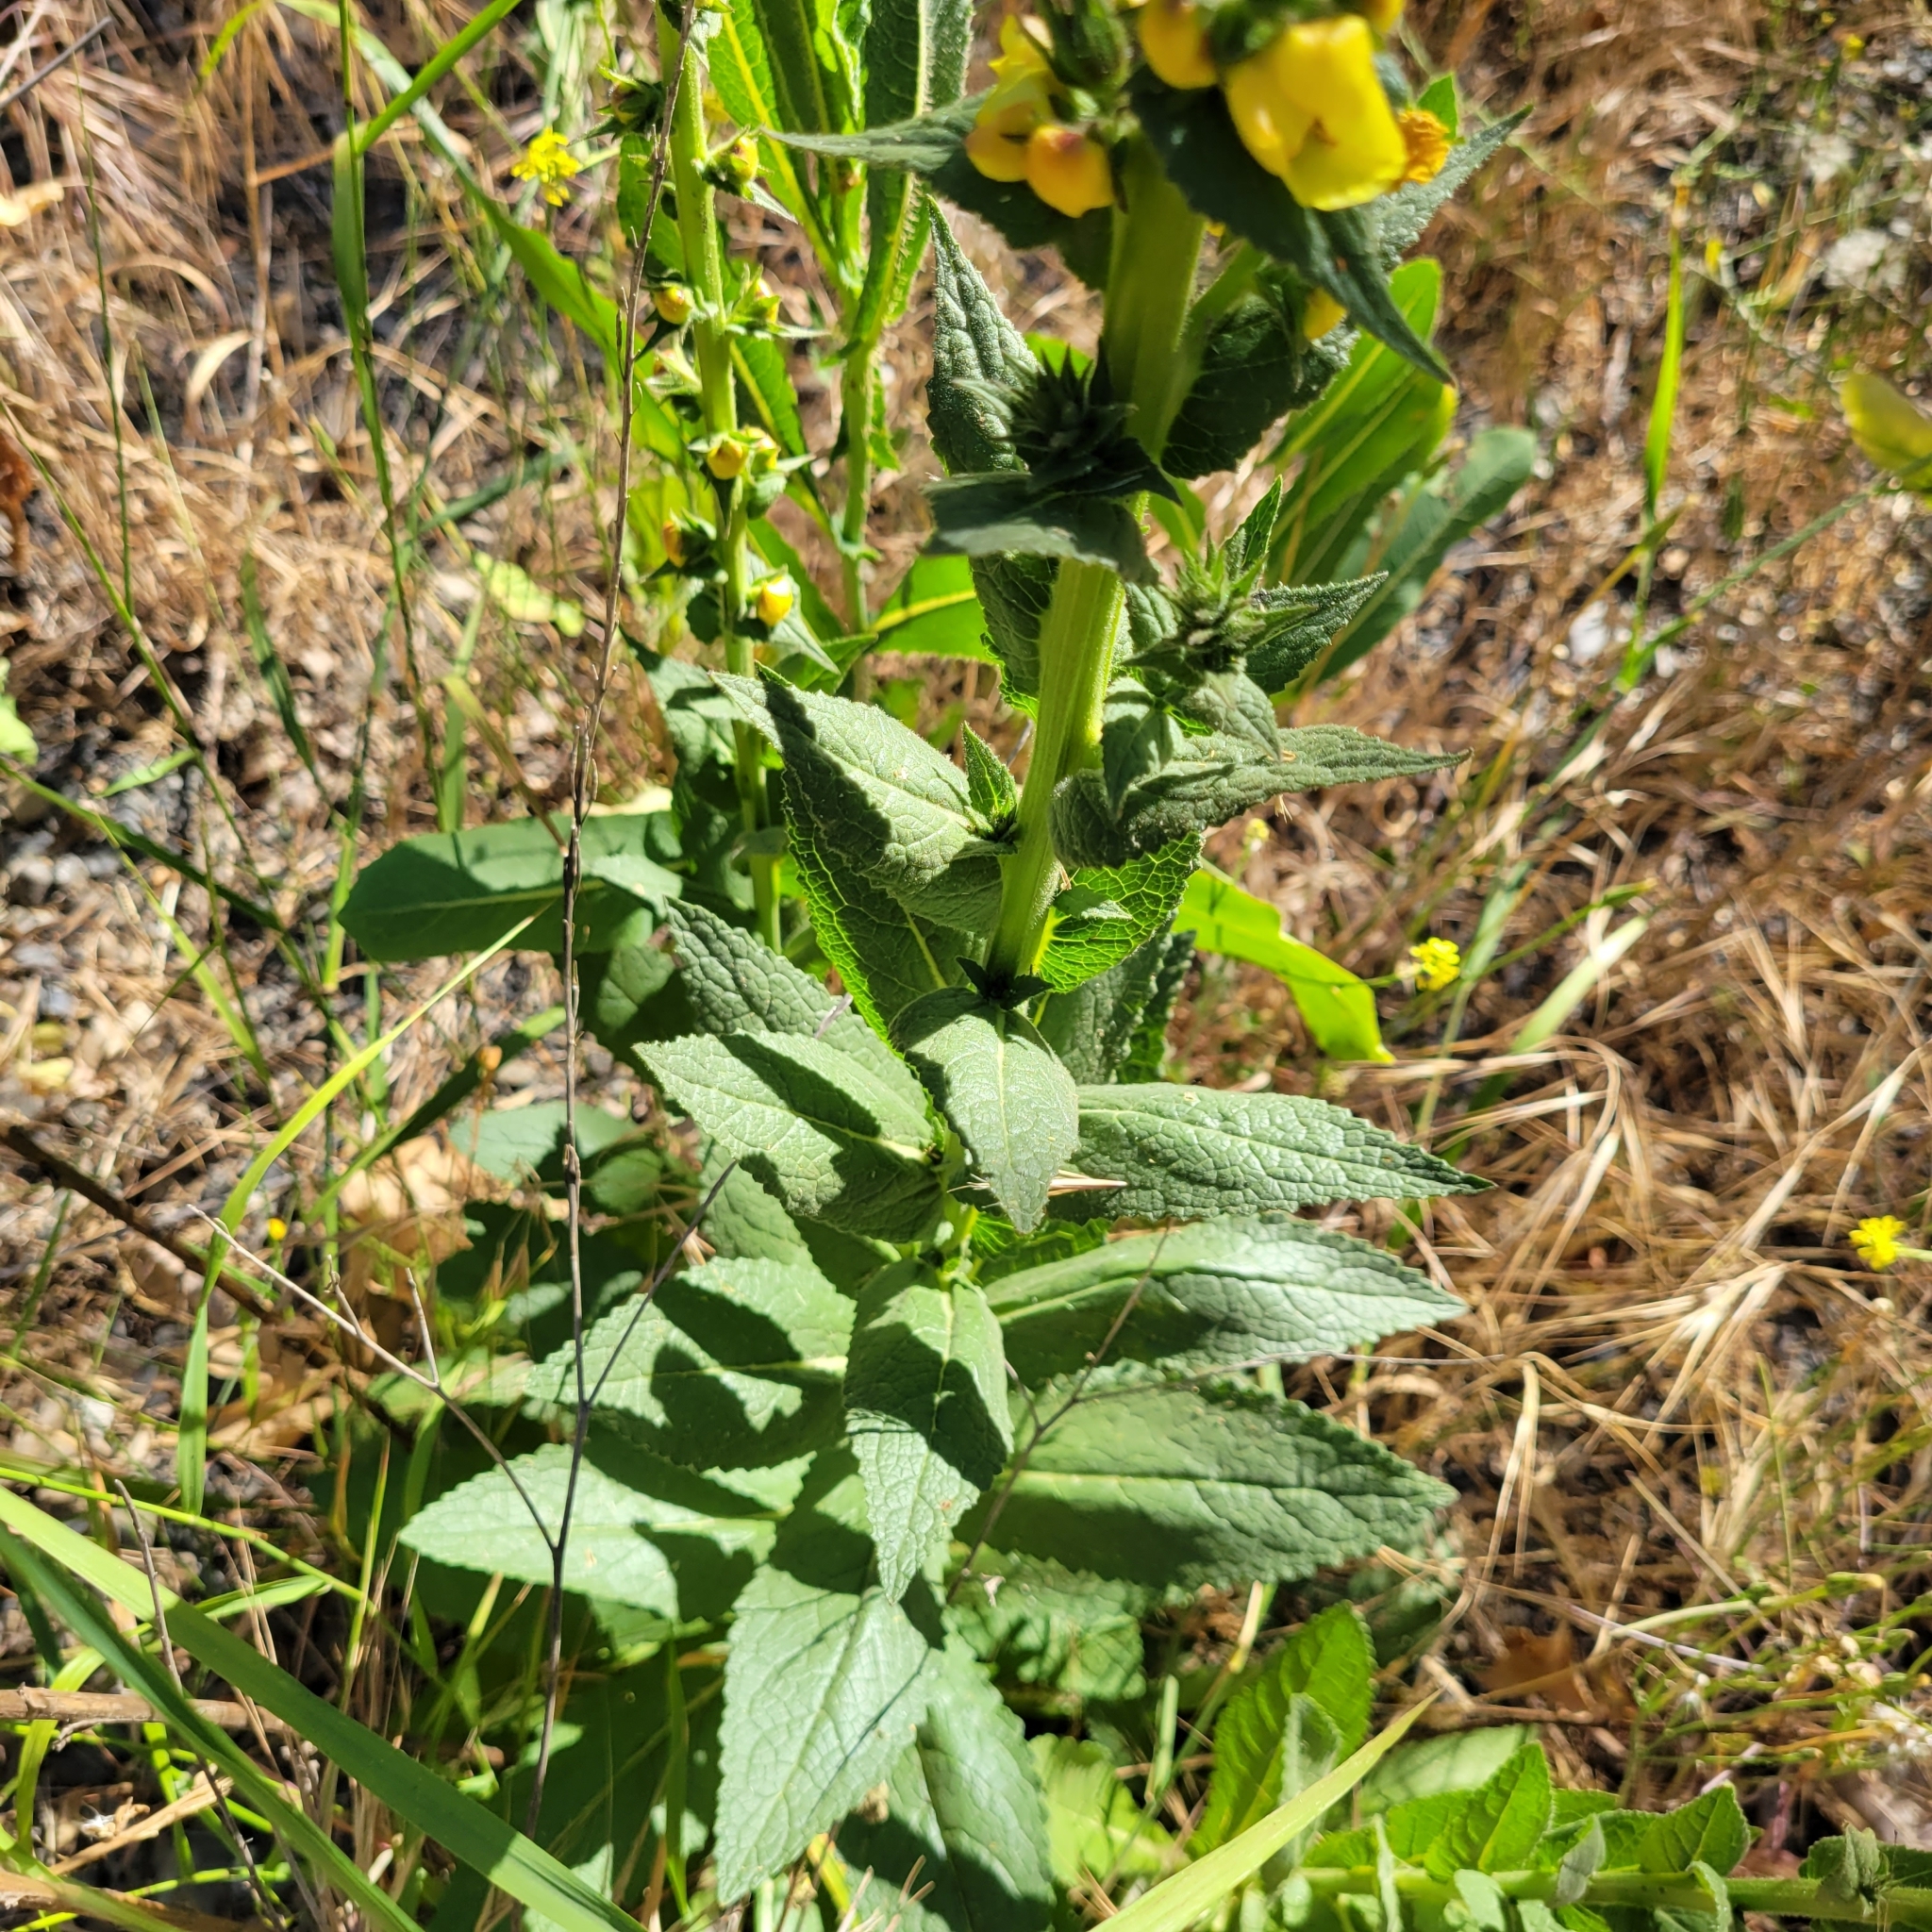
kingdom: Plantae
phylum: Tracheophyta
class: Magnoliopsida
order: Lamiales
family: Scrophulariaceae
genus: Verbascum
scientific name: Verbascum virgatum
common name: Twiggy mullein
